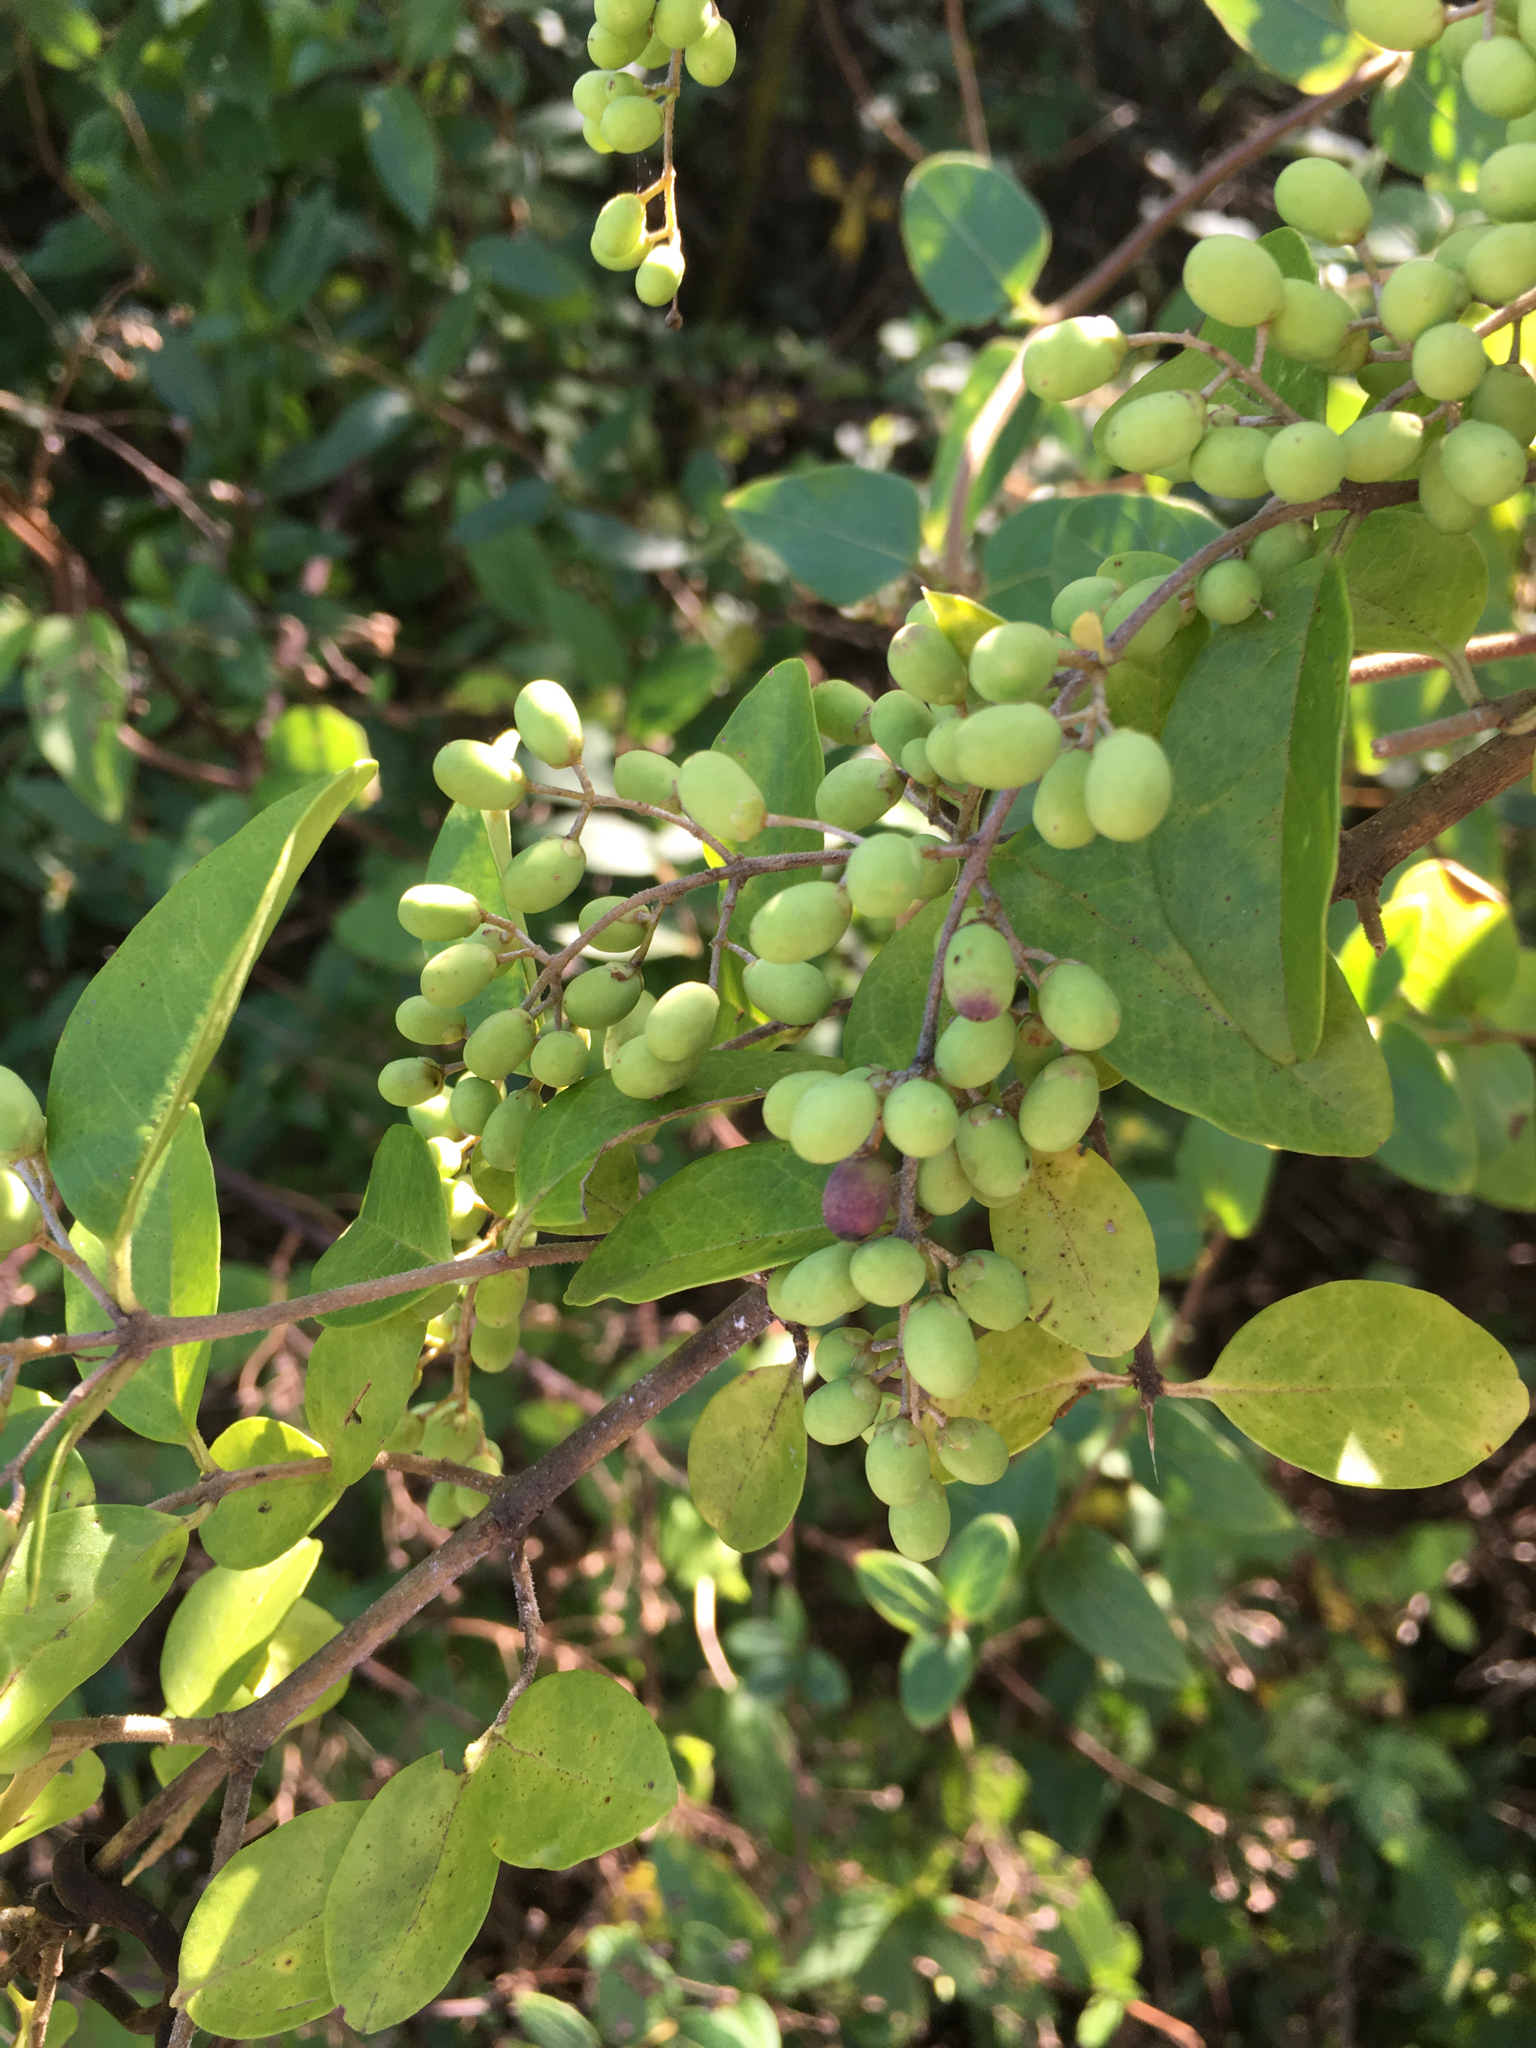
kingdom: Plantae
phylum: Tracheophyta
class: Magnoliopsida
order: Lamiales
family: Oleaceae
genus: Ligustrum
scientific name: Ligustrum sinense
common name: Chinese privet
